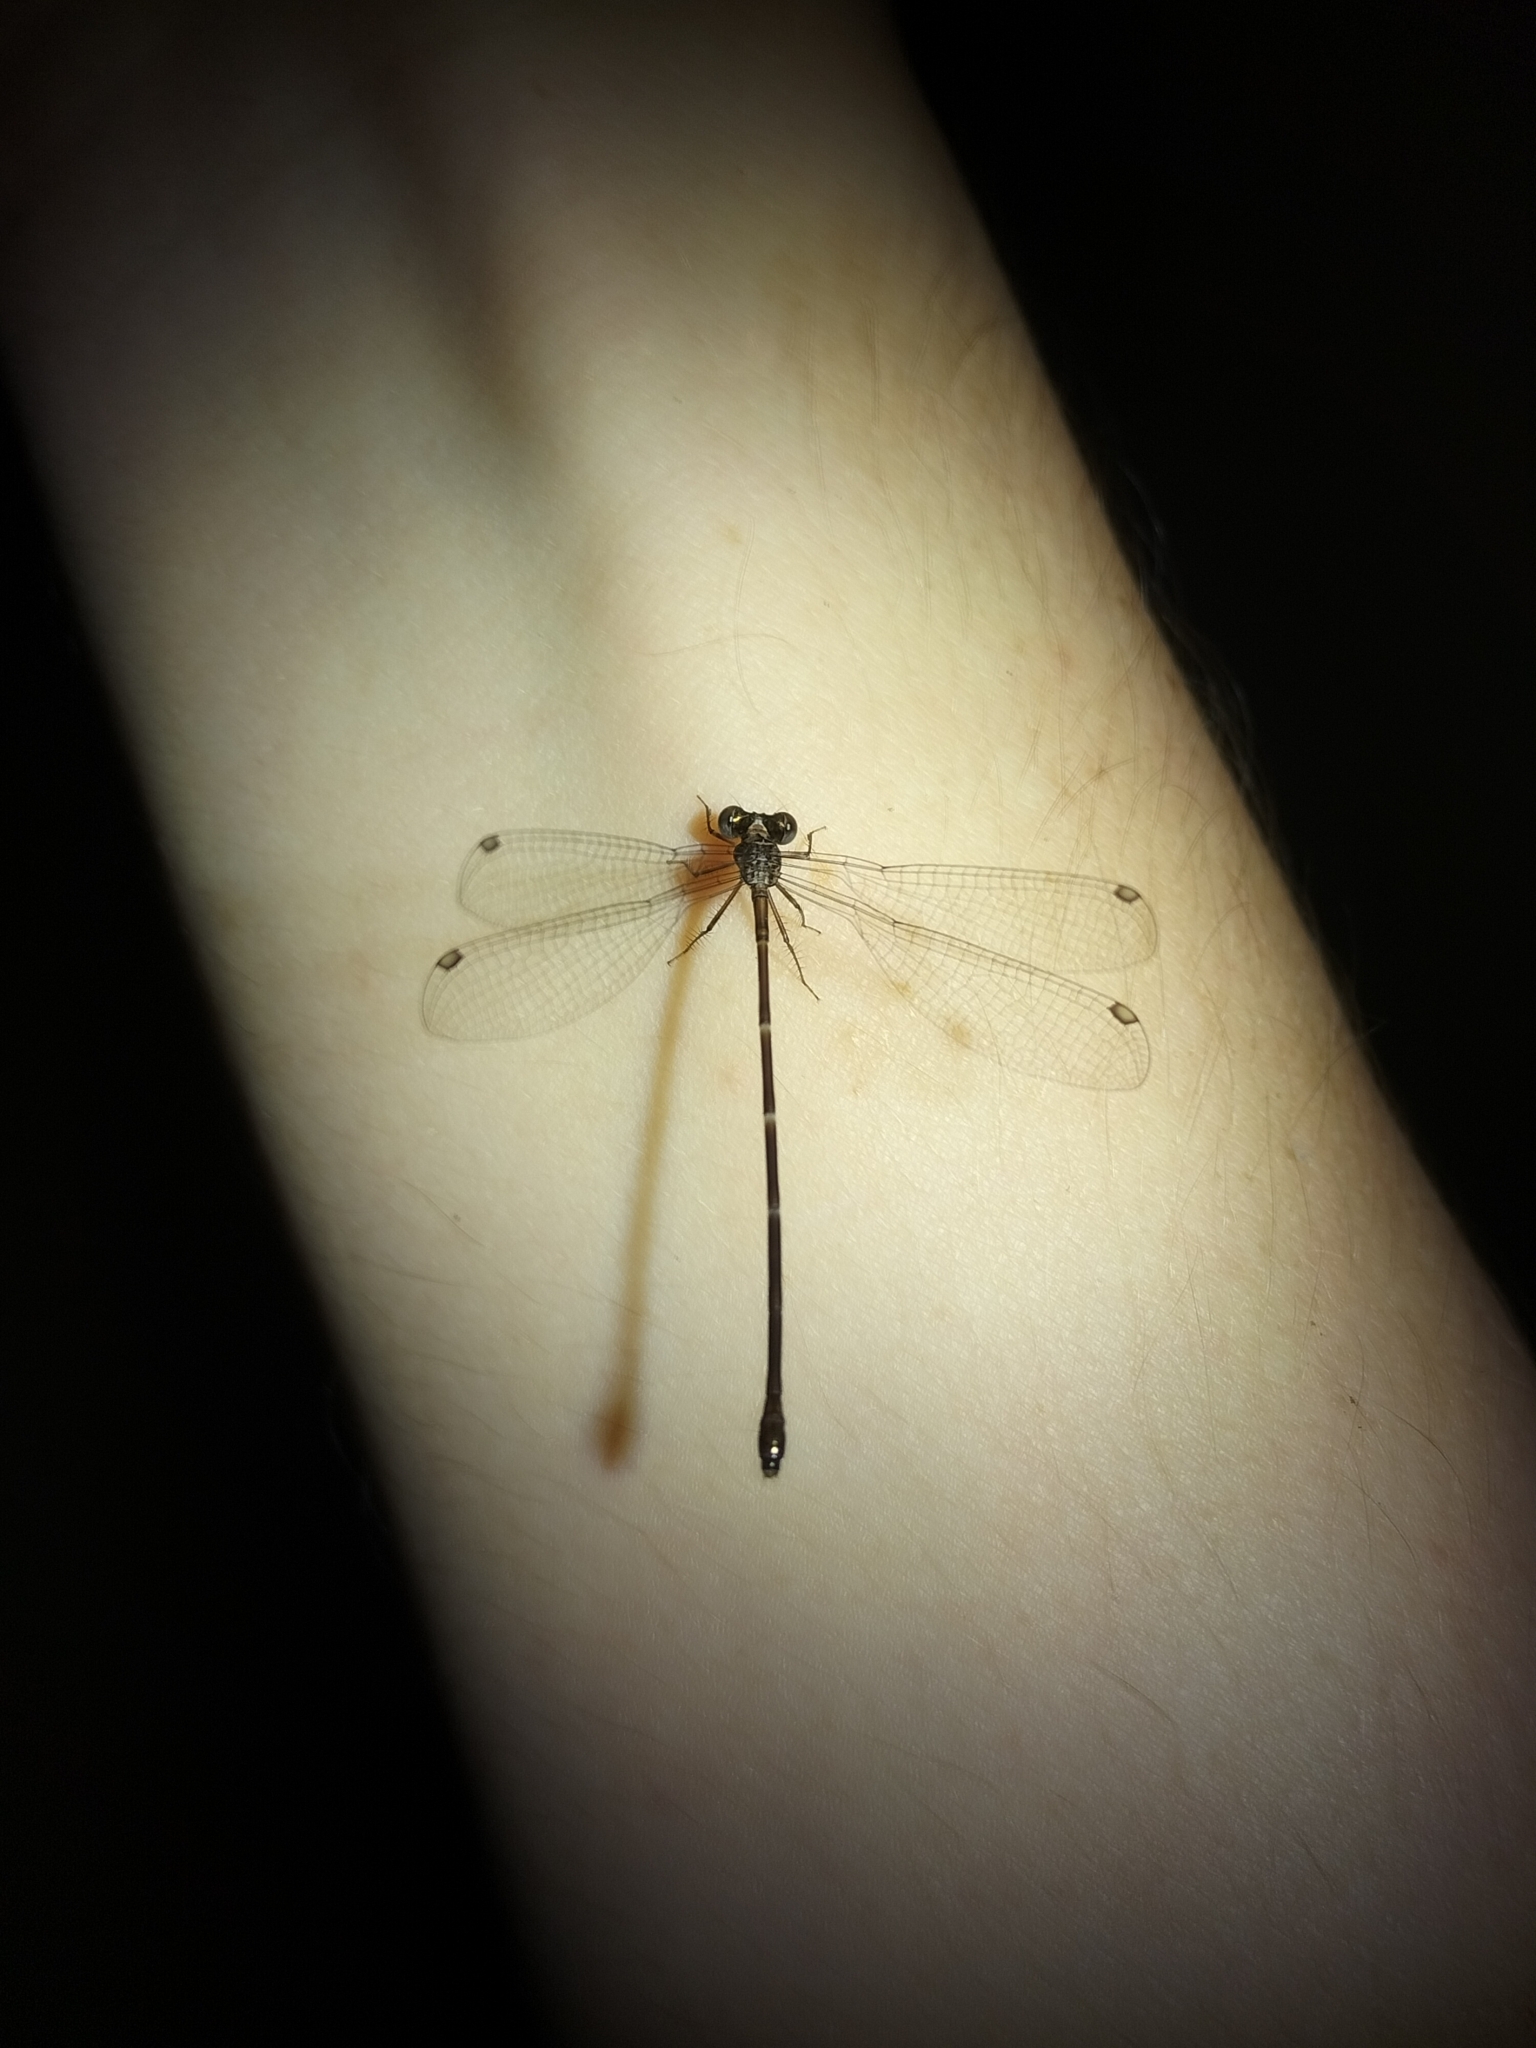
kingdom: Animalia
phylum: Arthropoda
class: Insecta
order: Odonata
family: Synlestidae
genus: Synlestes
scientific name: Synlestes tropicus
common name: Tropical needle
